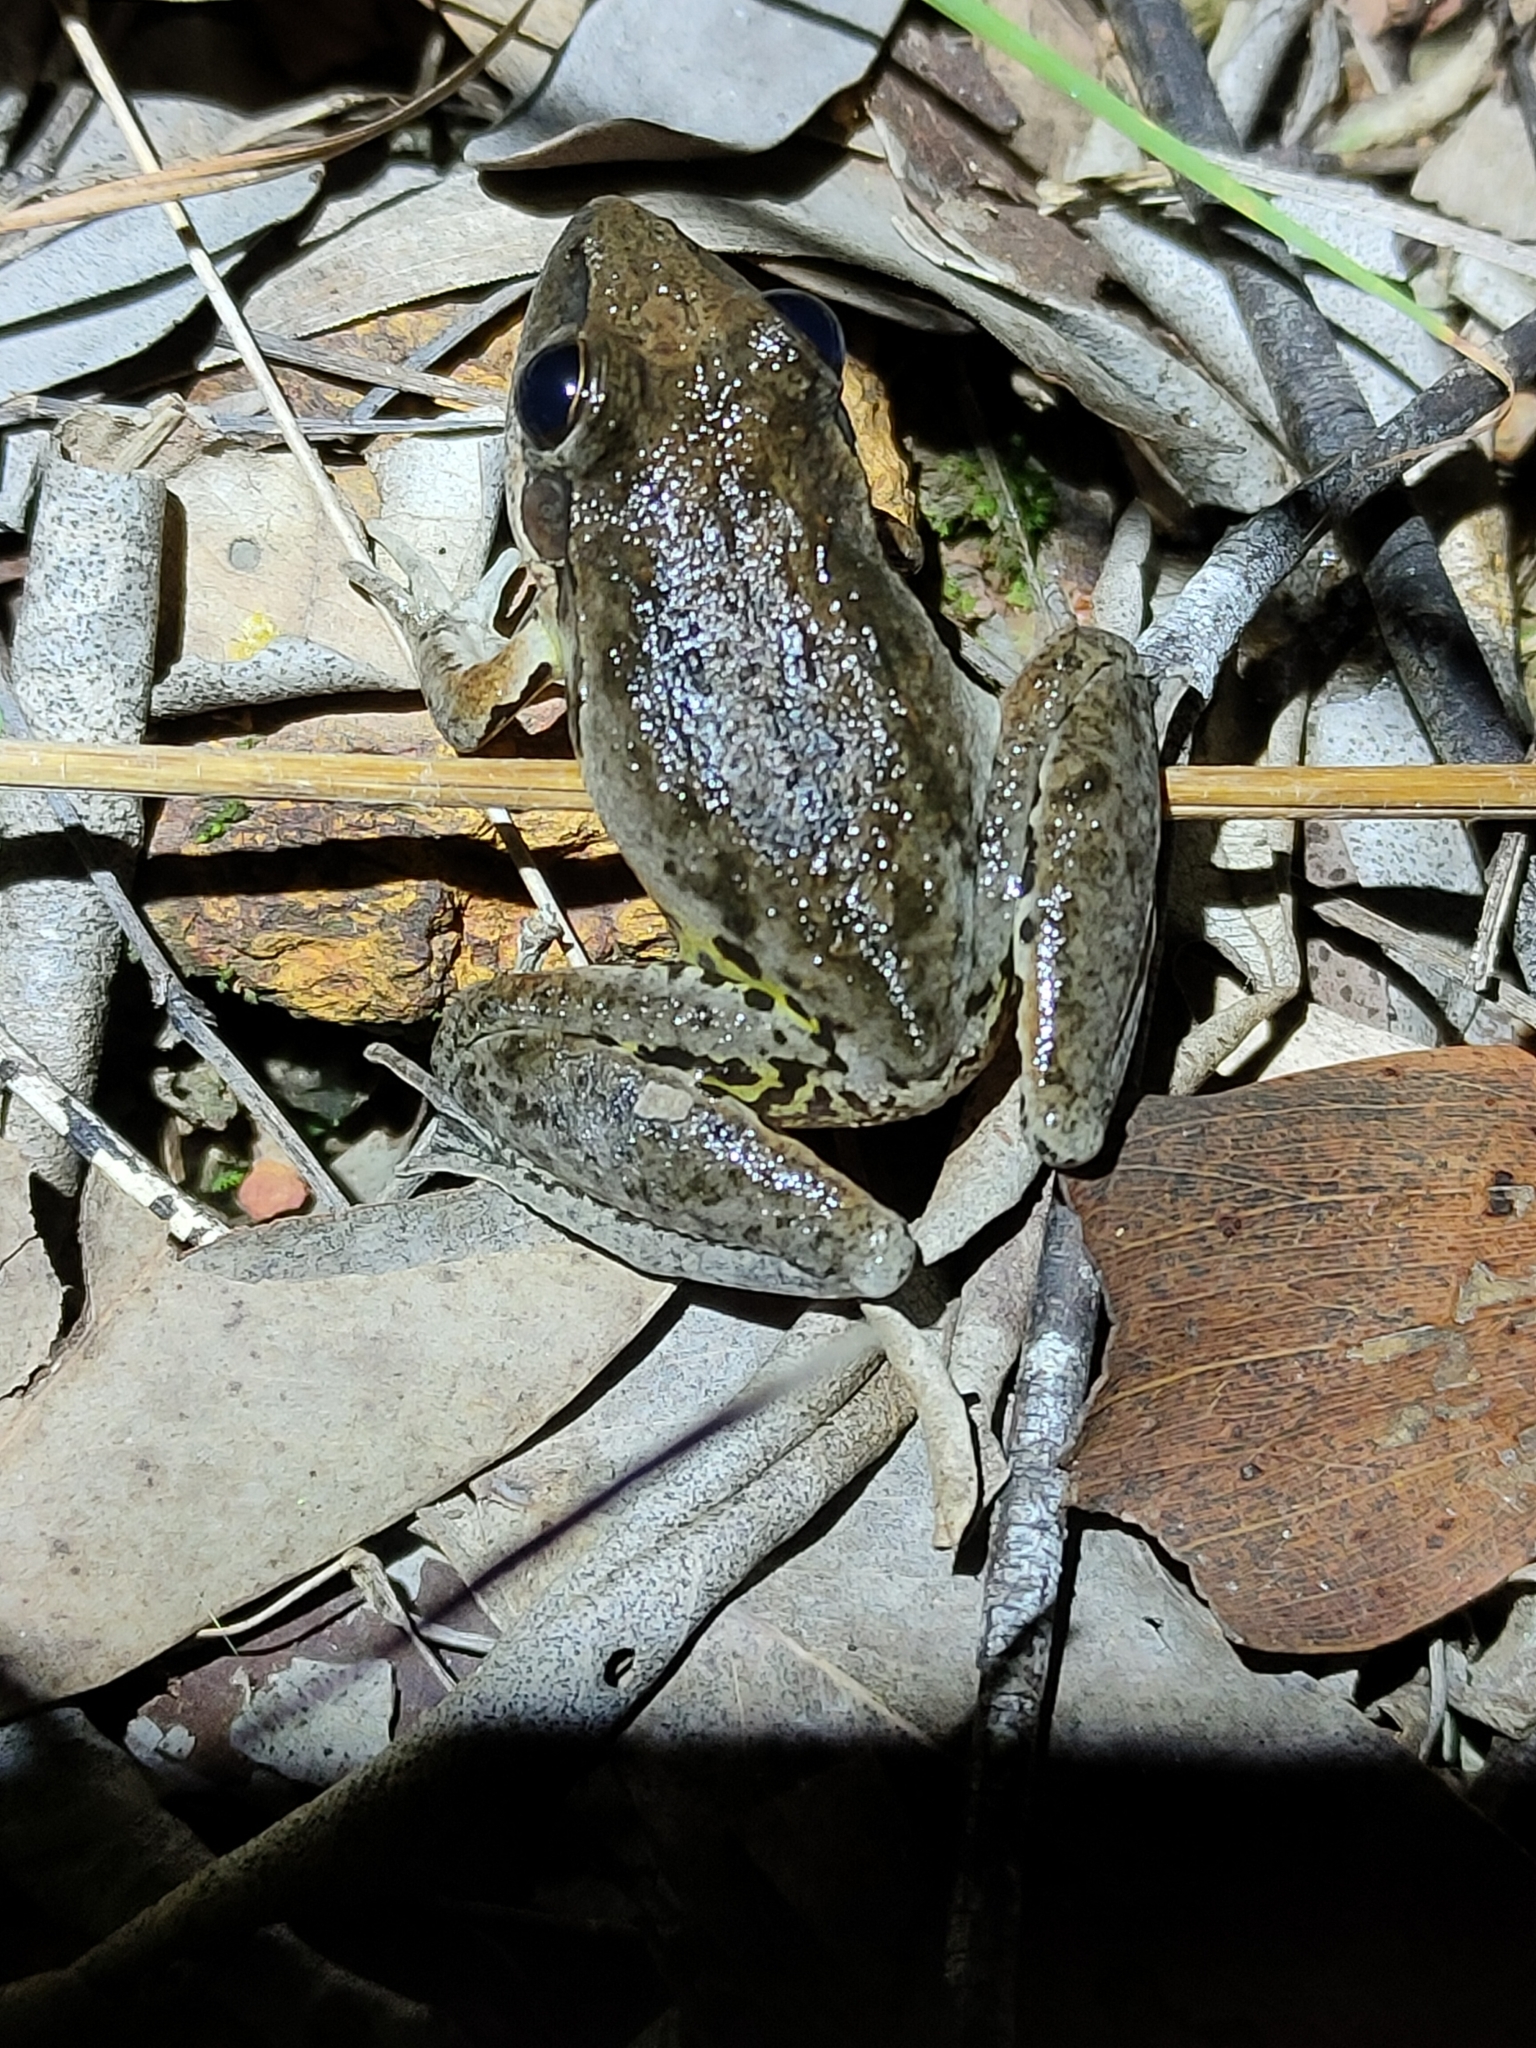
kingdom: Animalia
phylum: Chordata
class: Amphibia
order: Anura
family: Pelodryadidae
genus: Litoria
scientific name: Litoria latopalmata
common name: Broad-palmed rocket frog
